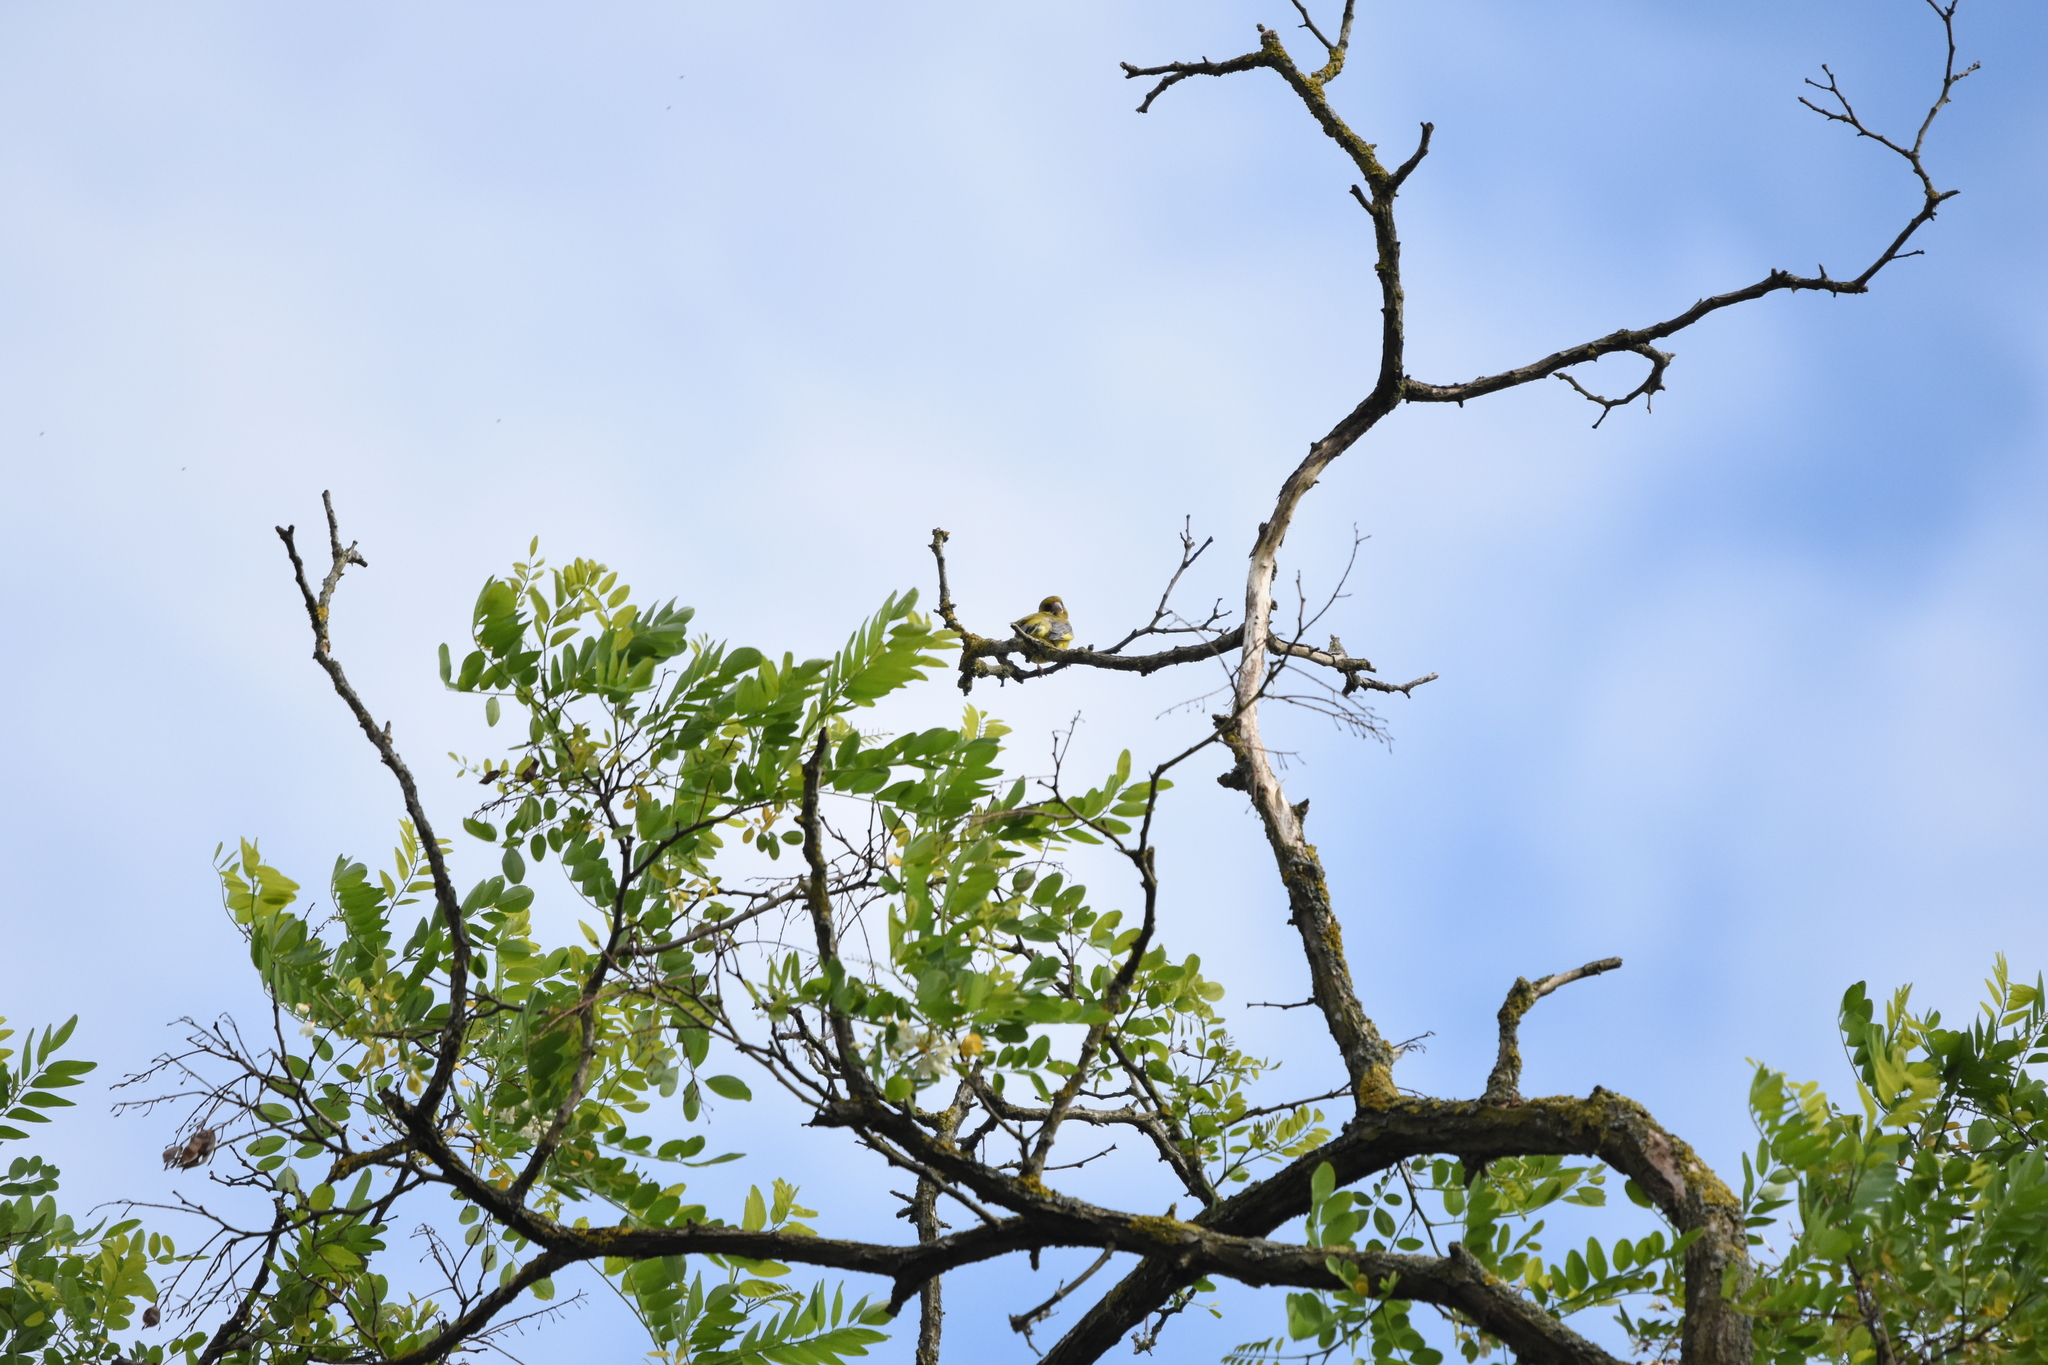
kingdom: Plantae
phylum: Tracheophyta
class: Liliopsida
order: Poales
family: Poaceae
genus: Chloris
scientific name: Chloris chloris
